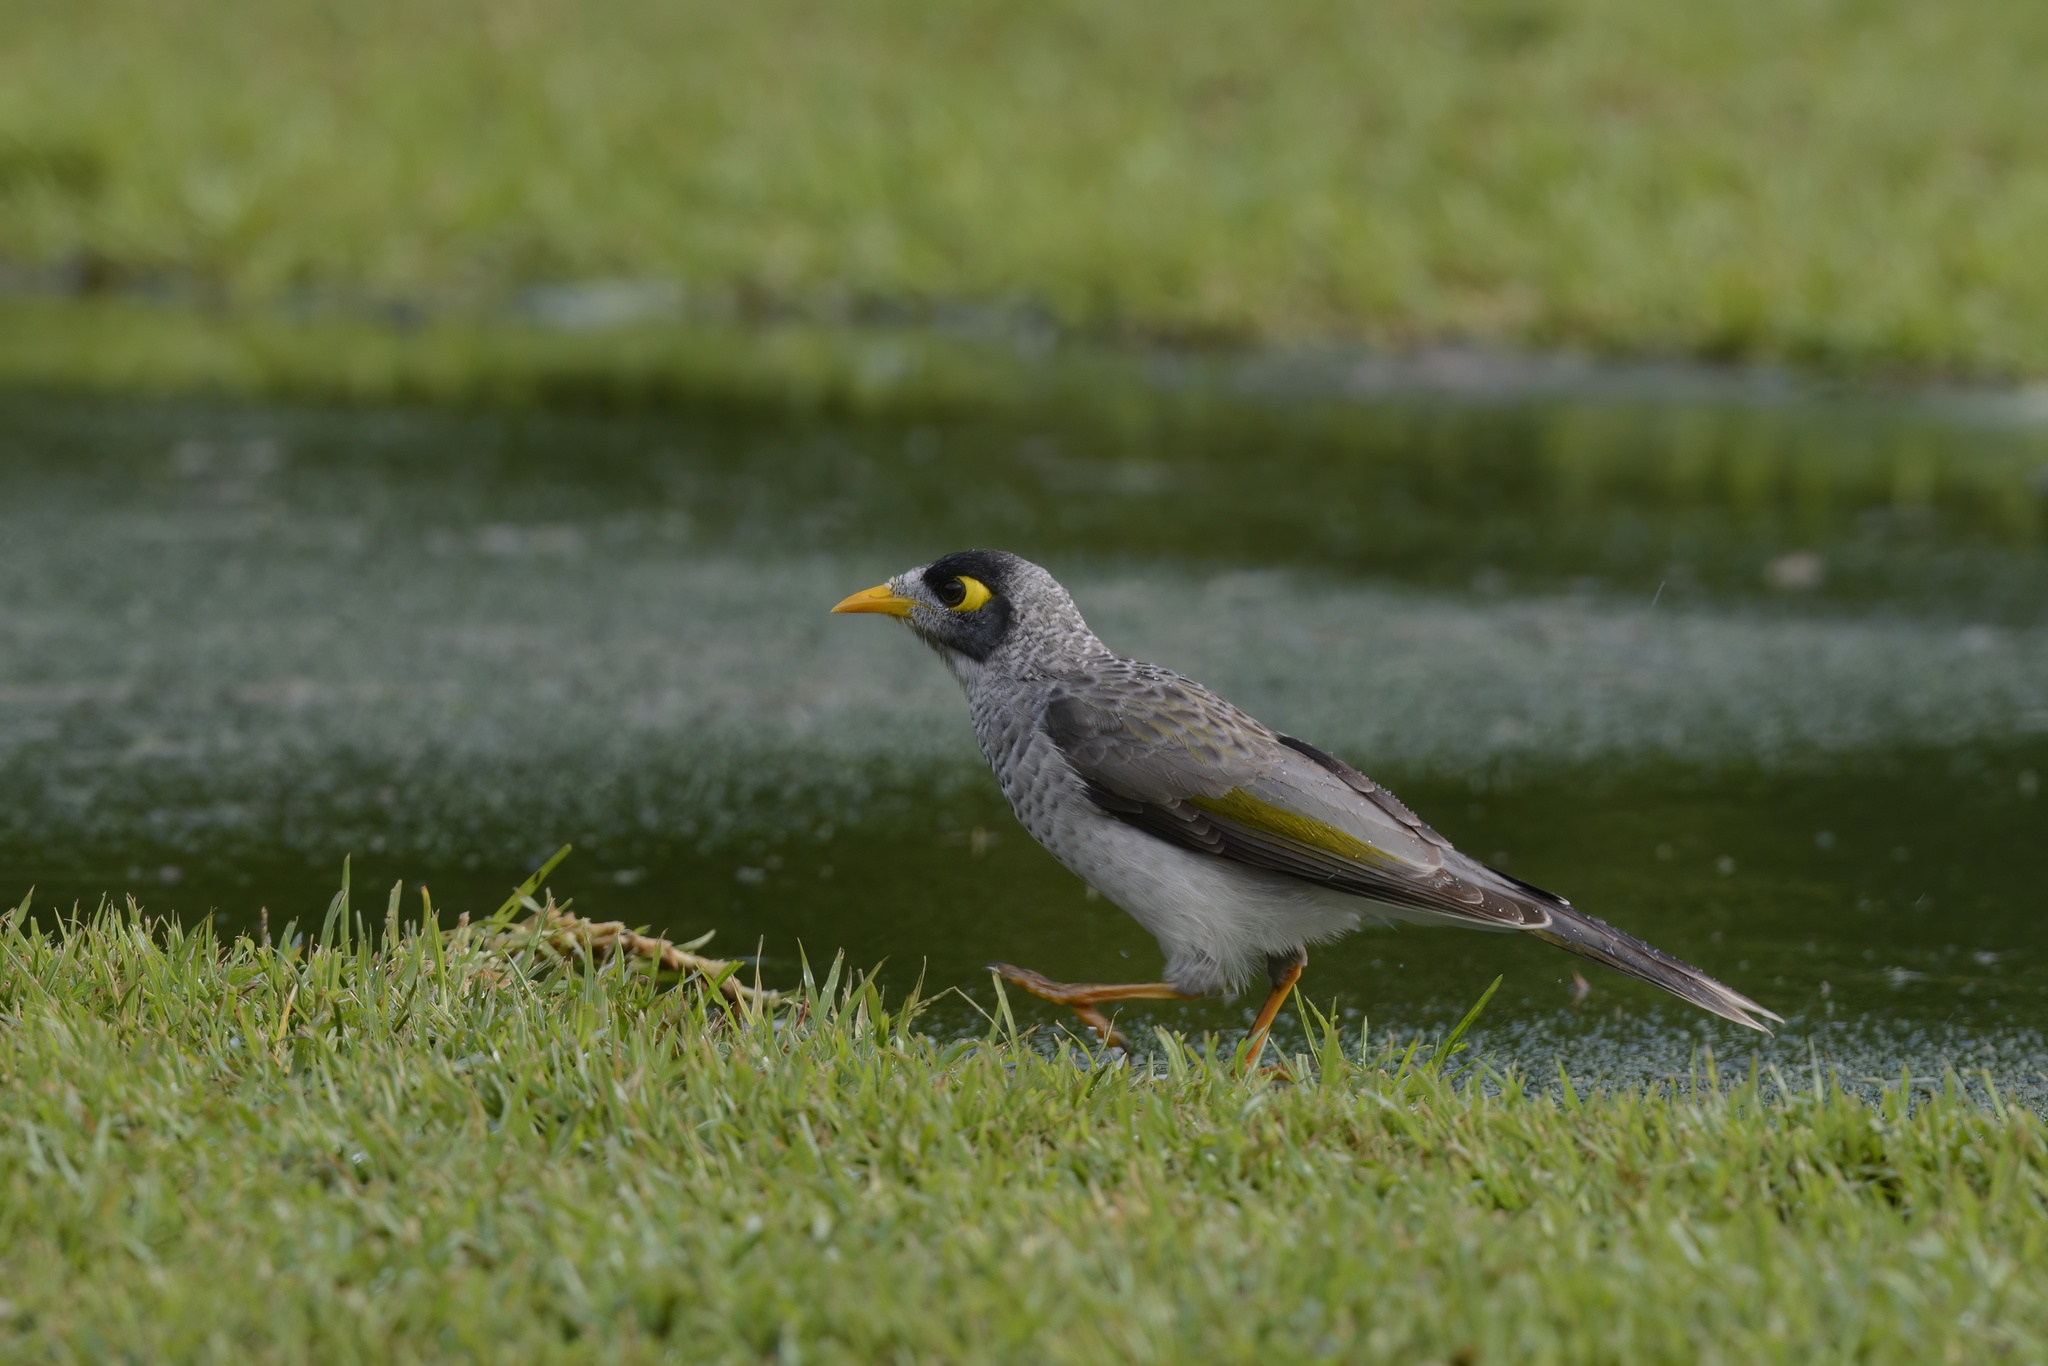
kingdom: Animalia
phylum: Chordata
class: Aves
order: Passeriformes
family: Meliphagidae
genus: Manorina
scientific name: Manorina melanocephala
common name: Noisy miner
